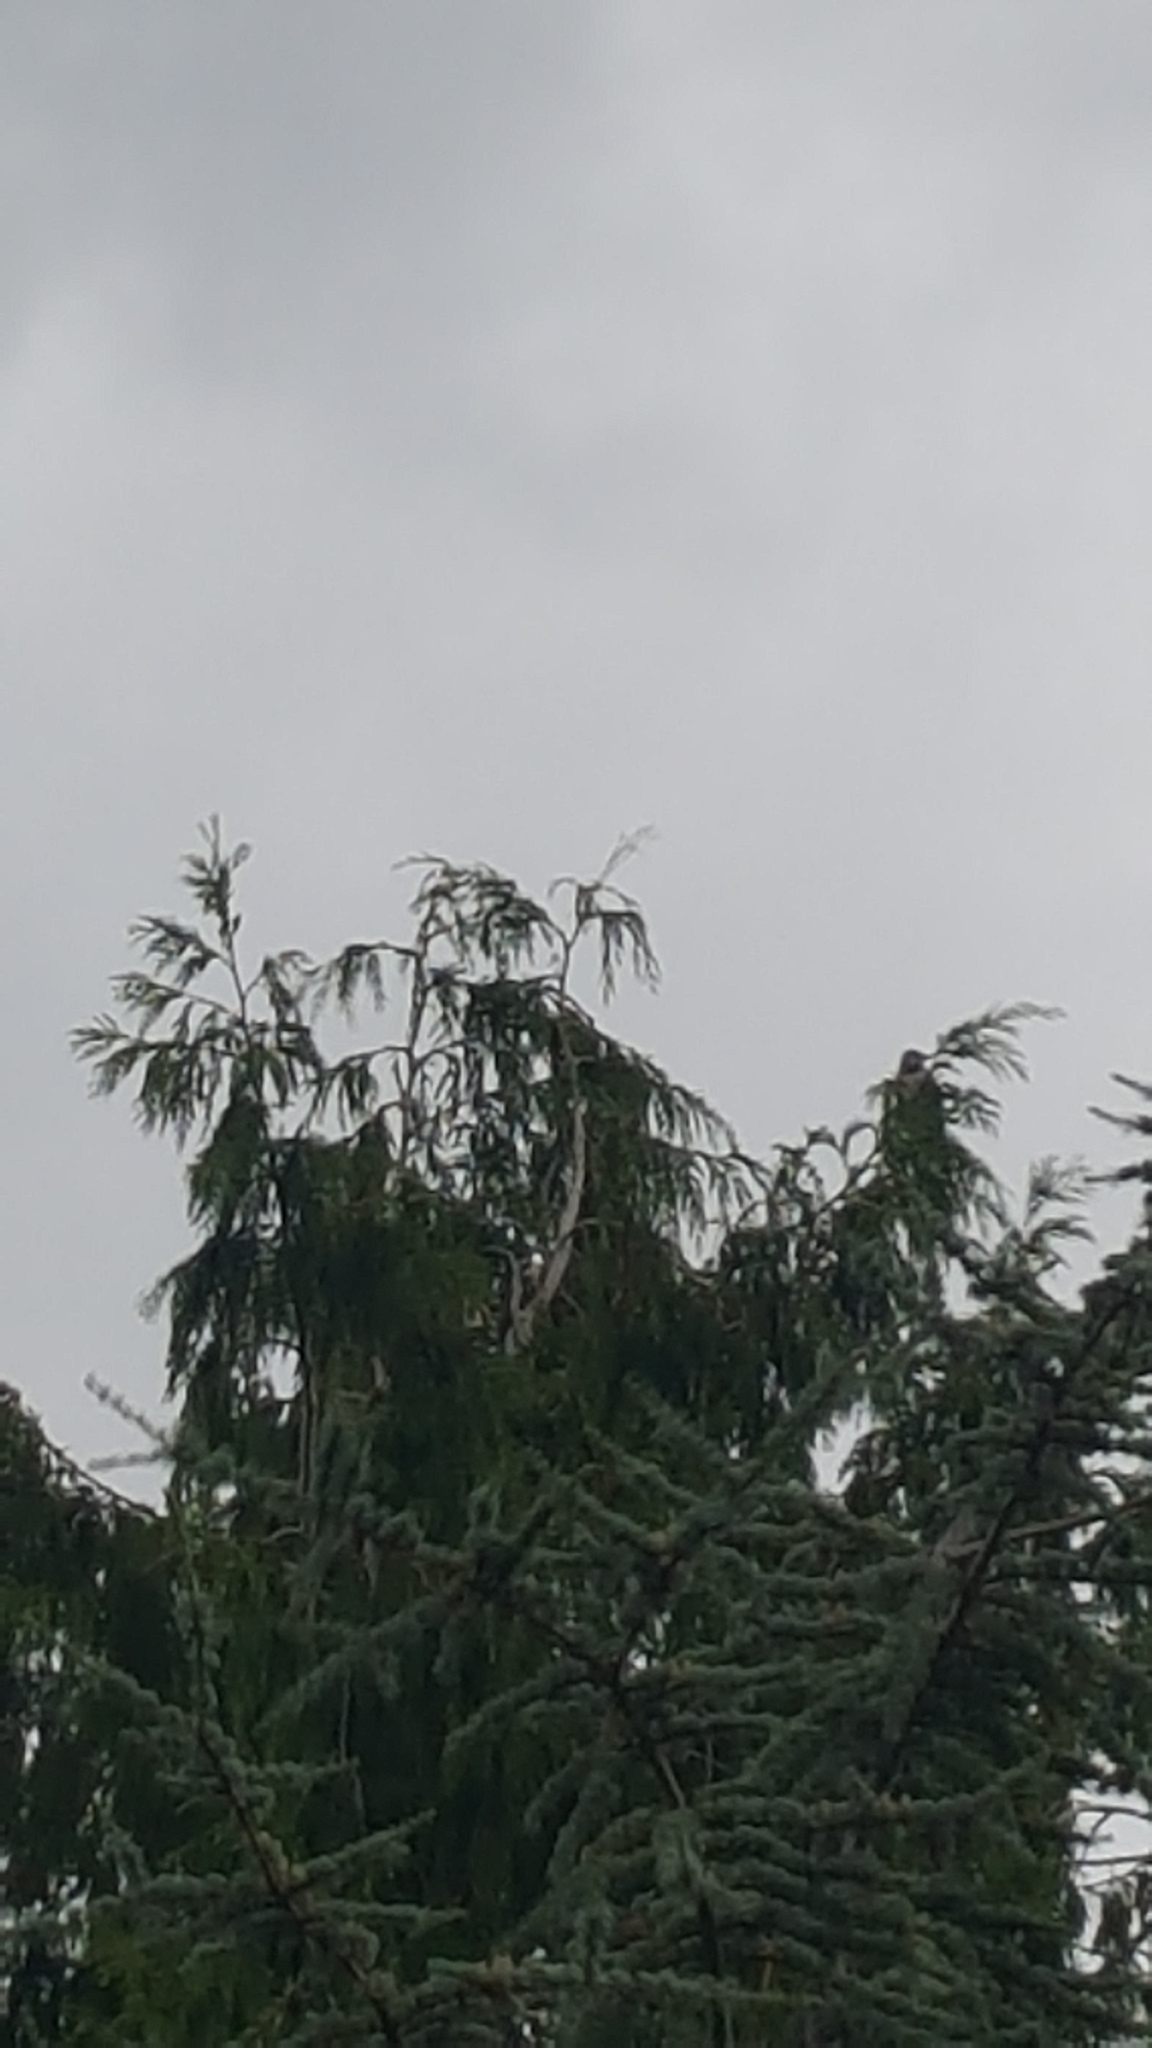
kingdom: Animalia
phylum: Chordata
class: Aves
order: Piciformes
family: Picidae
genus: Colaptes
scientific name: Colaptes auratus
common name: Northern flicker
